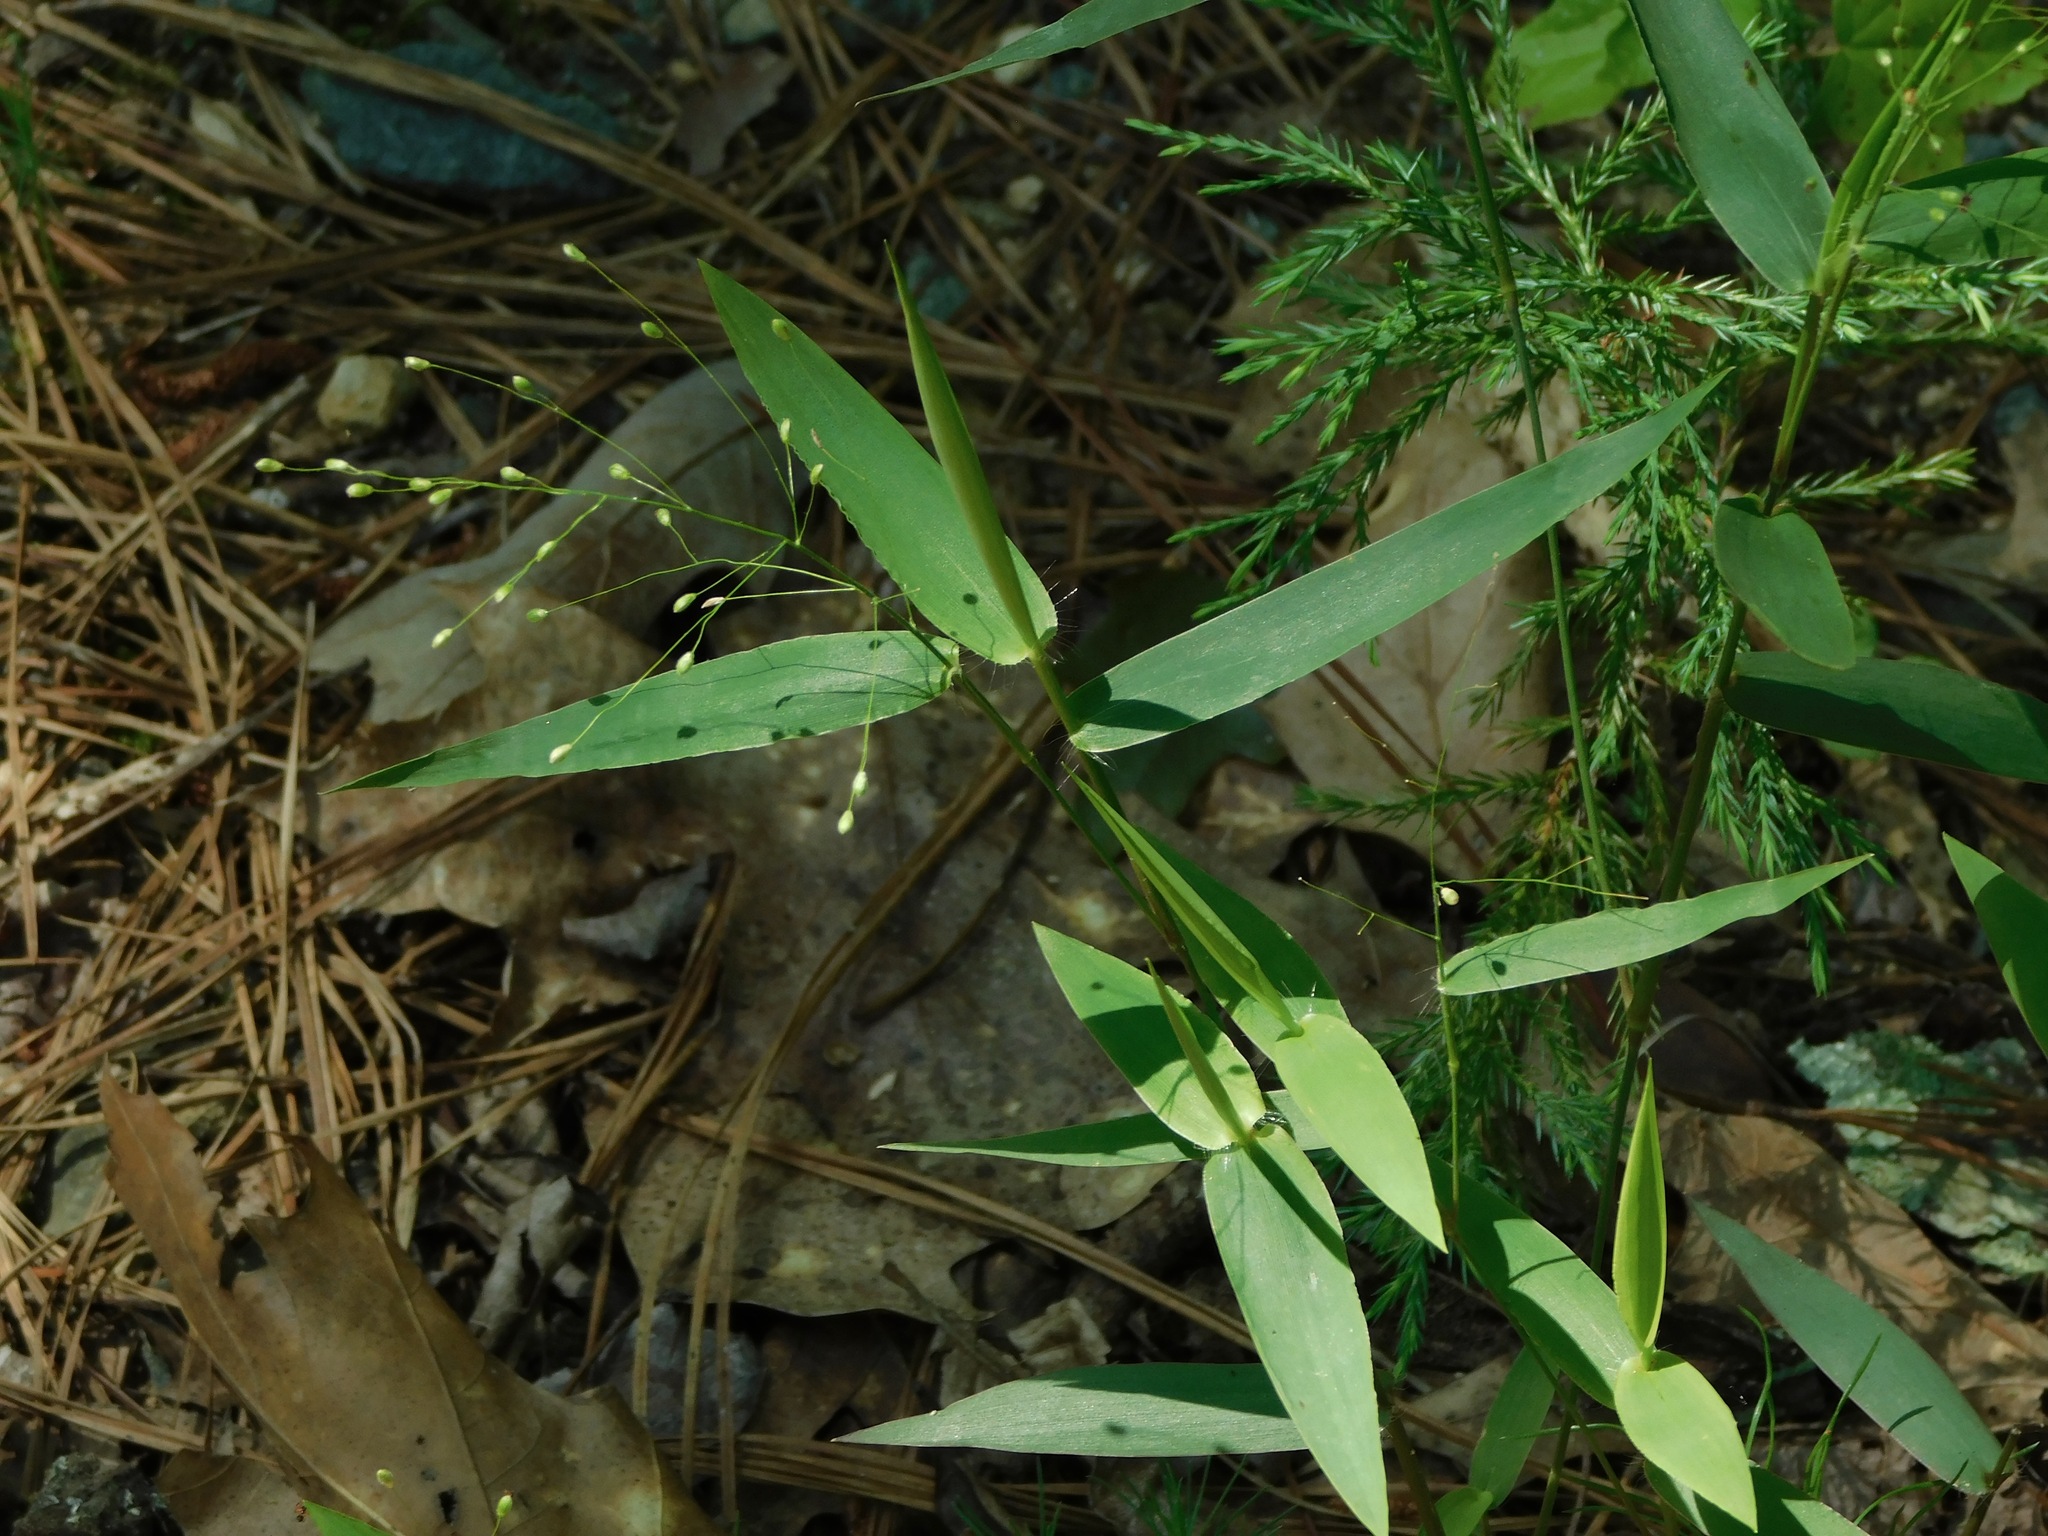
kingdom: Plantae
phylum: Tracheophyta
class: Liliopsida
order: Poales
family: Poaceae
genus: Dichanthelium
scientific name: Dichanthelium commutatum
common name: Variable witchgrass
